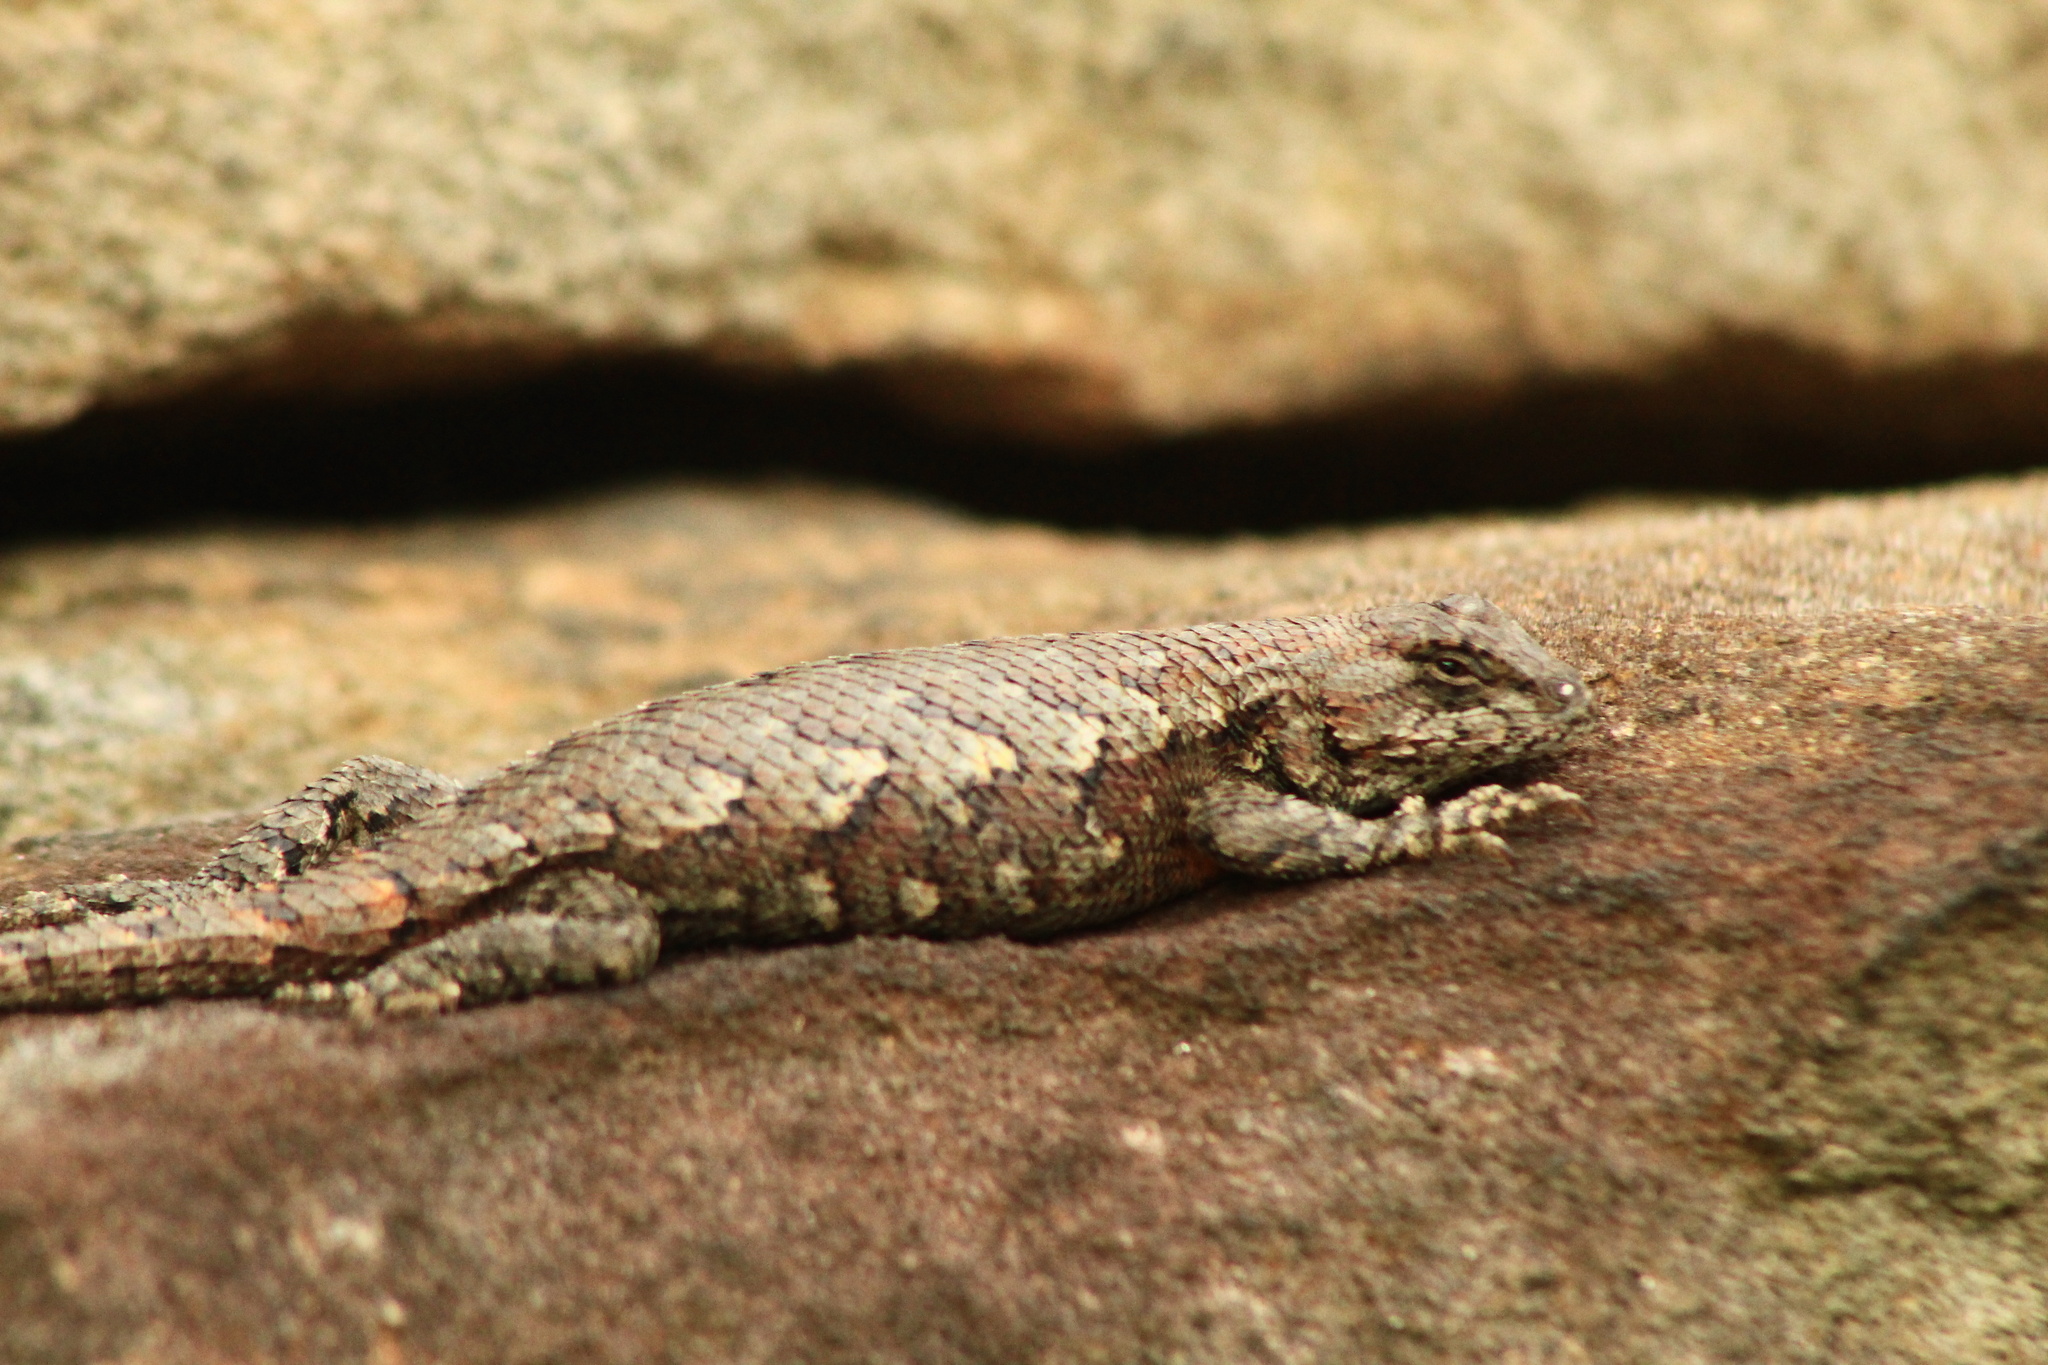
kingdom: Animalia
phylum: Chordata
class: Squamata
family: Phrynosomatidae
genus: Sceloporus
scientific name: Sceloporus undulatus
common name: Eastern fence lizard
